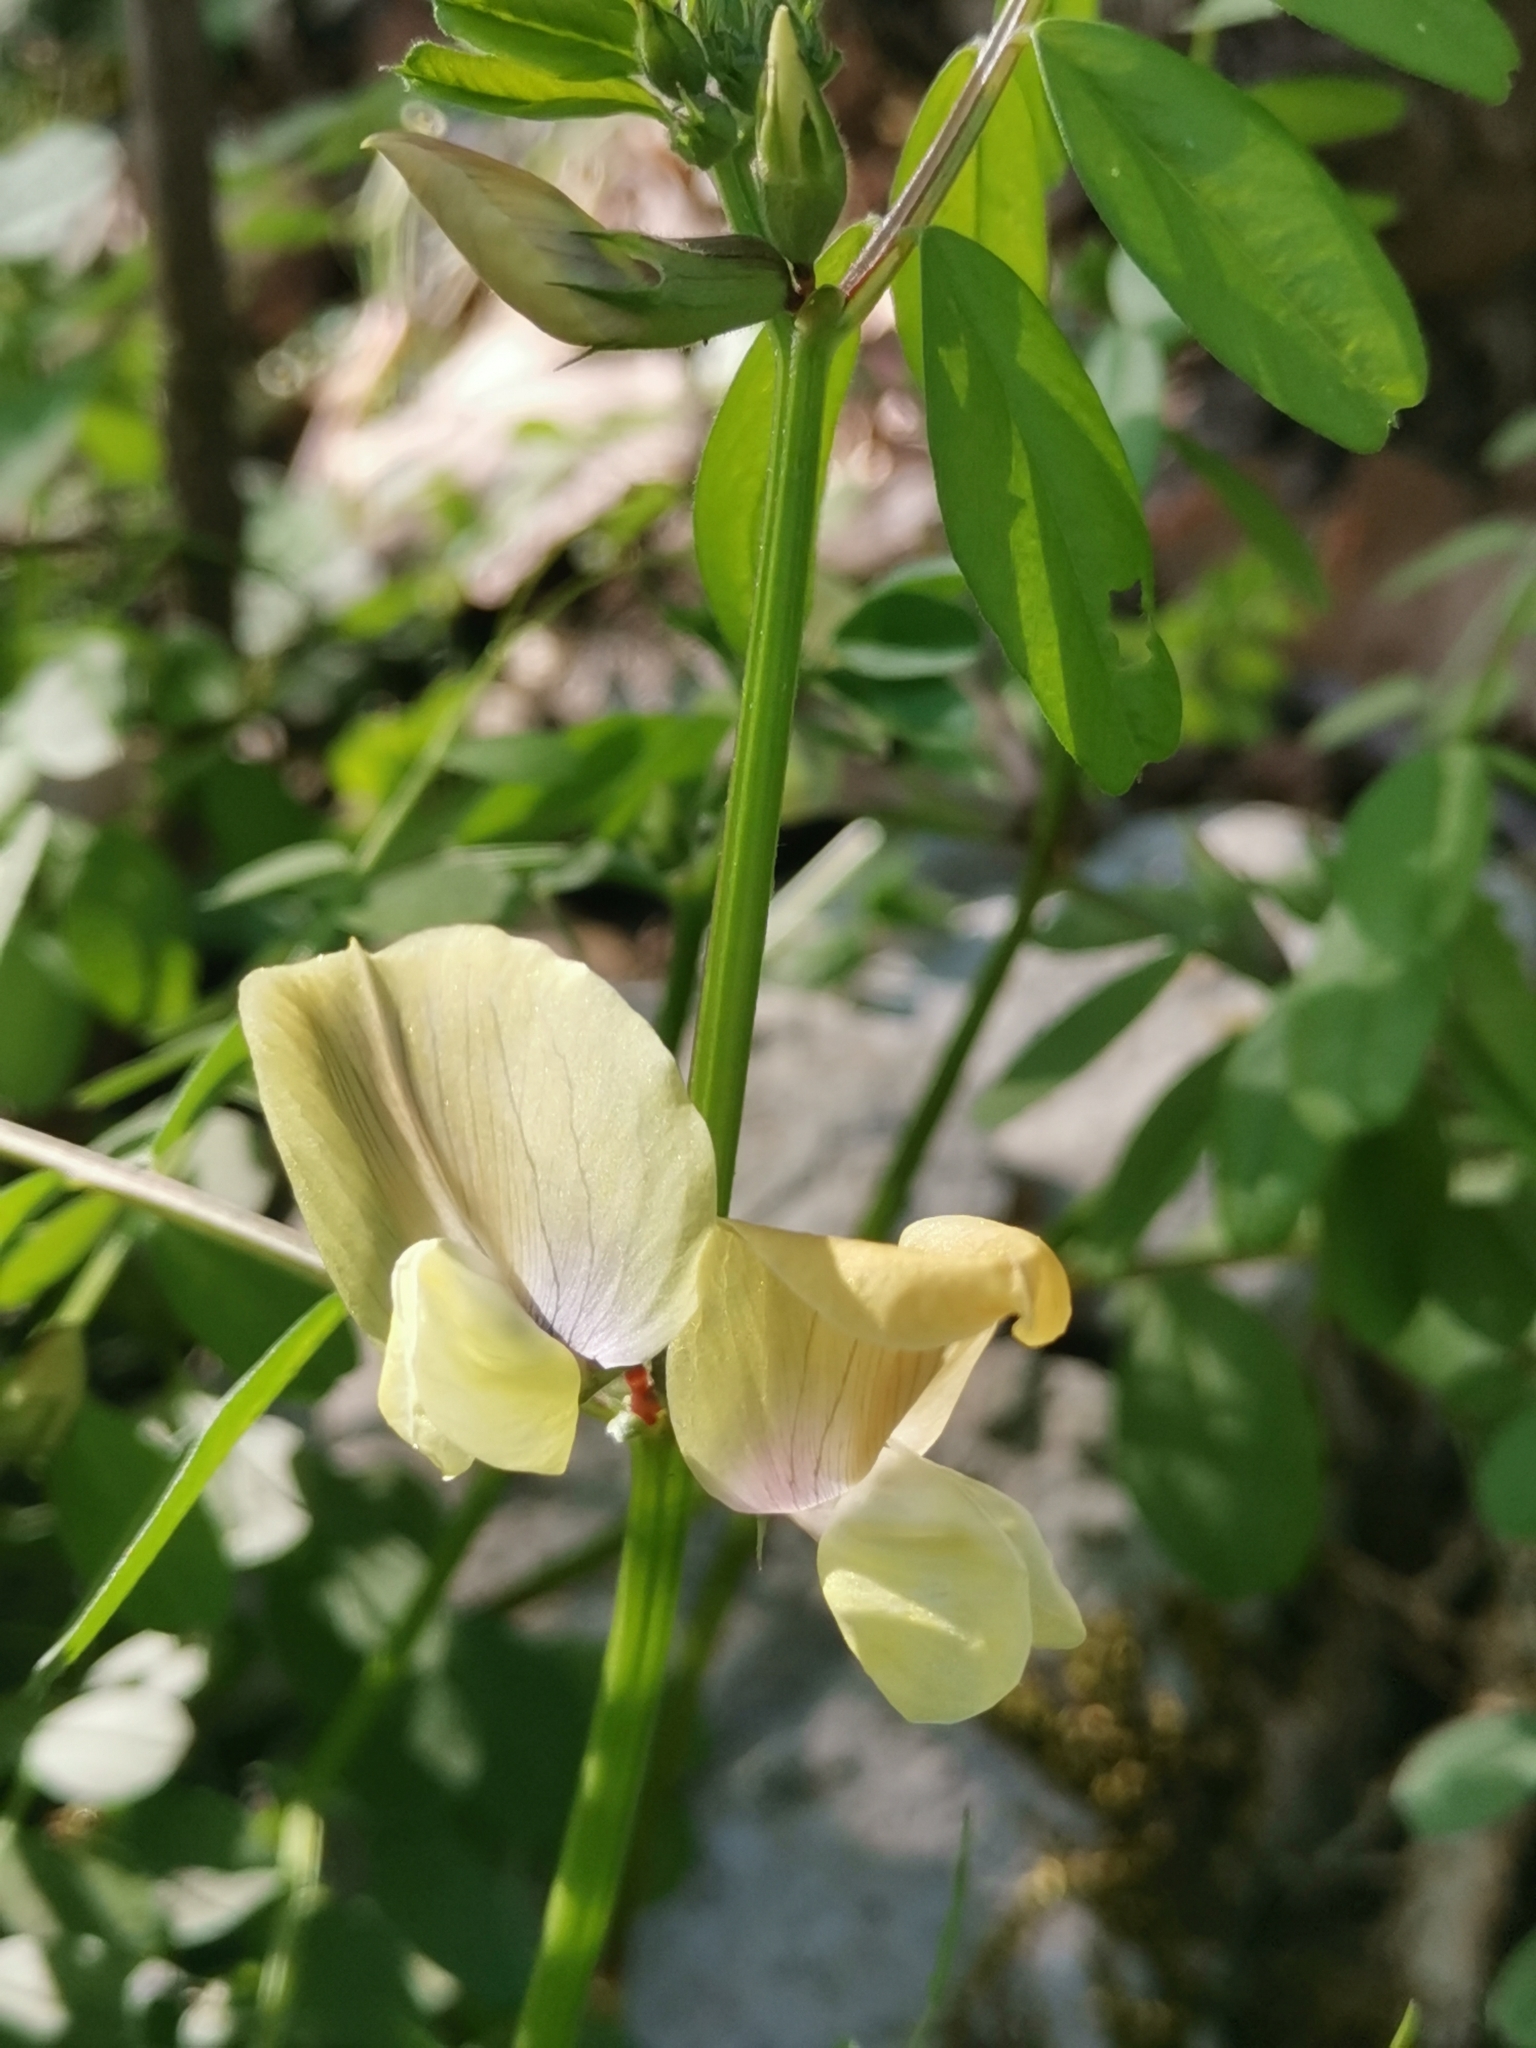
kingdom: Plantae
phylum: Tracheophyta
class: Magnoliopsida
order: Fabales
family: Fabaceae
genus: Vicia
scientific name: Vicia grandiflora
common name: Large yellow vetch
